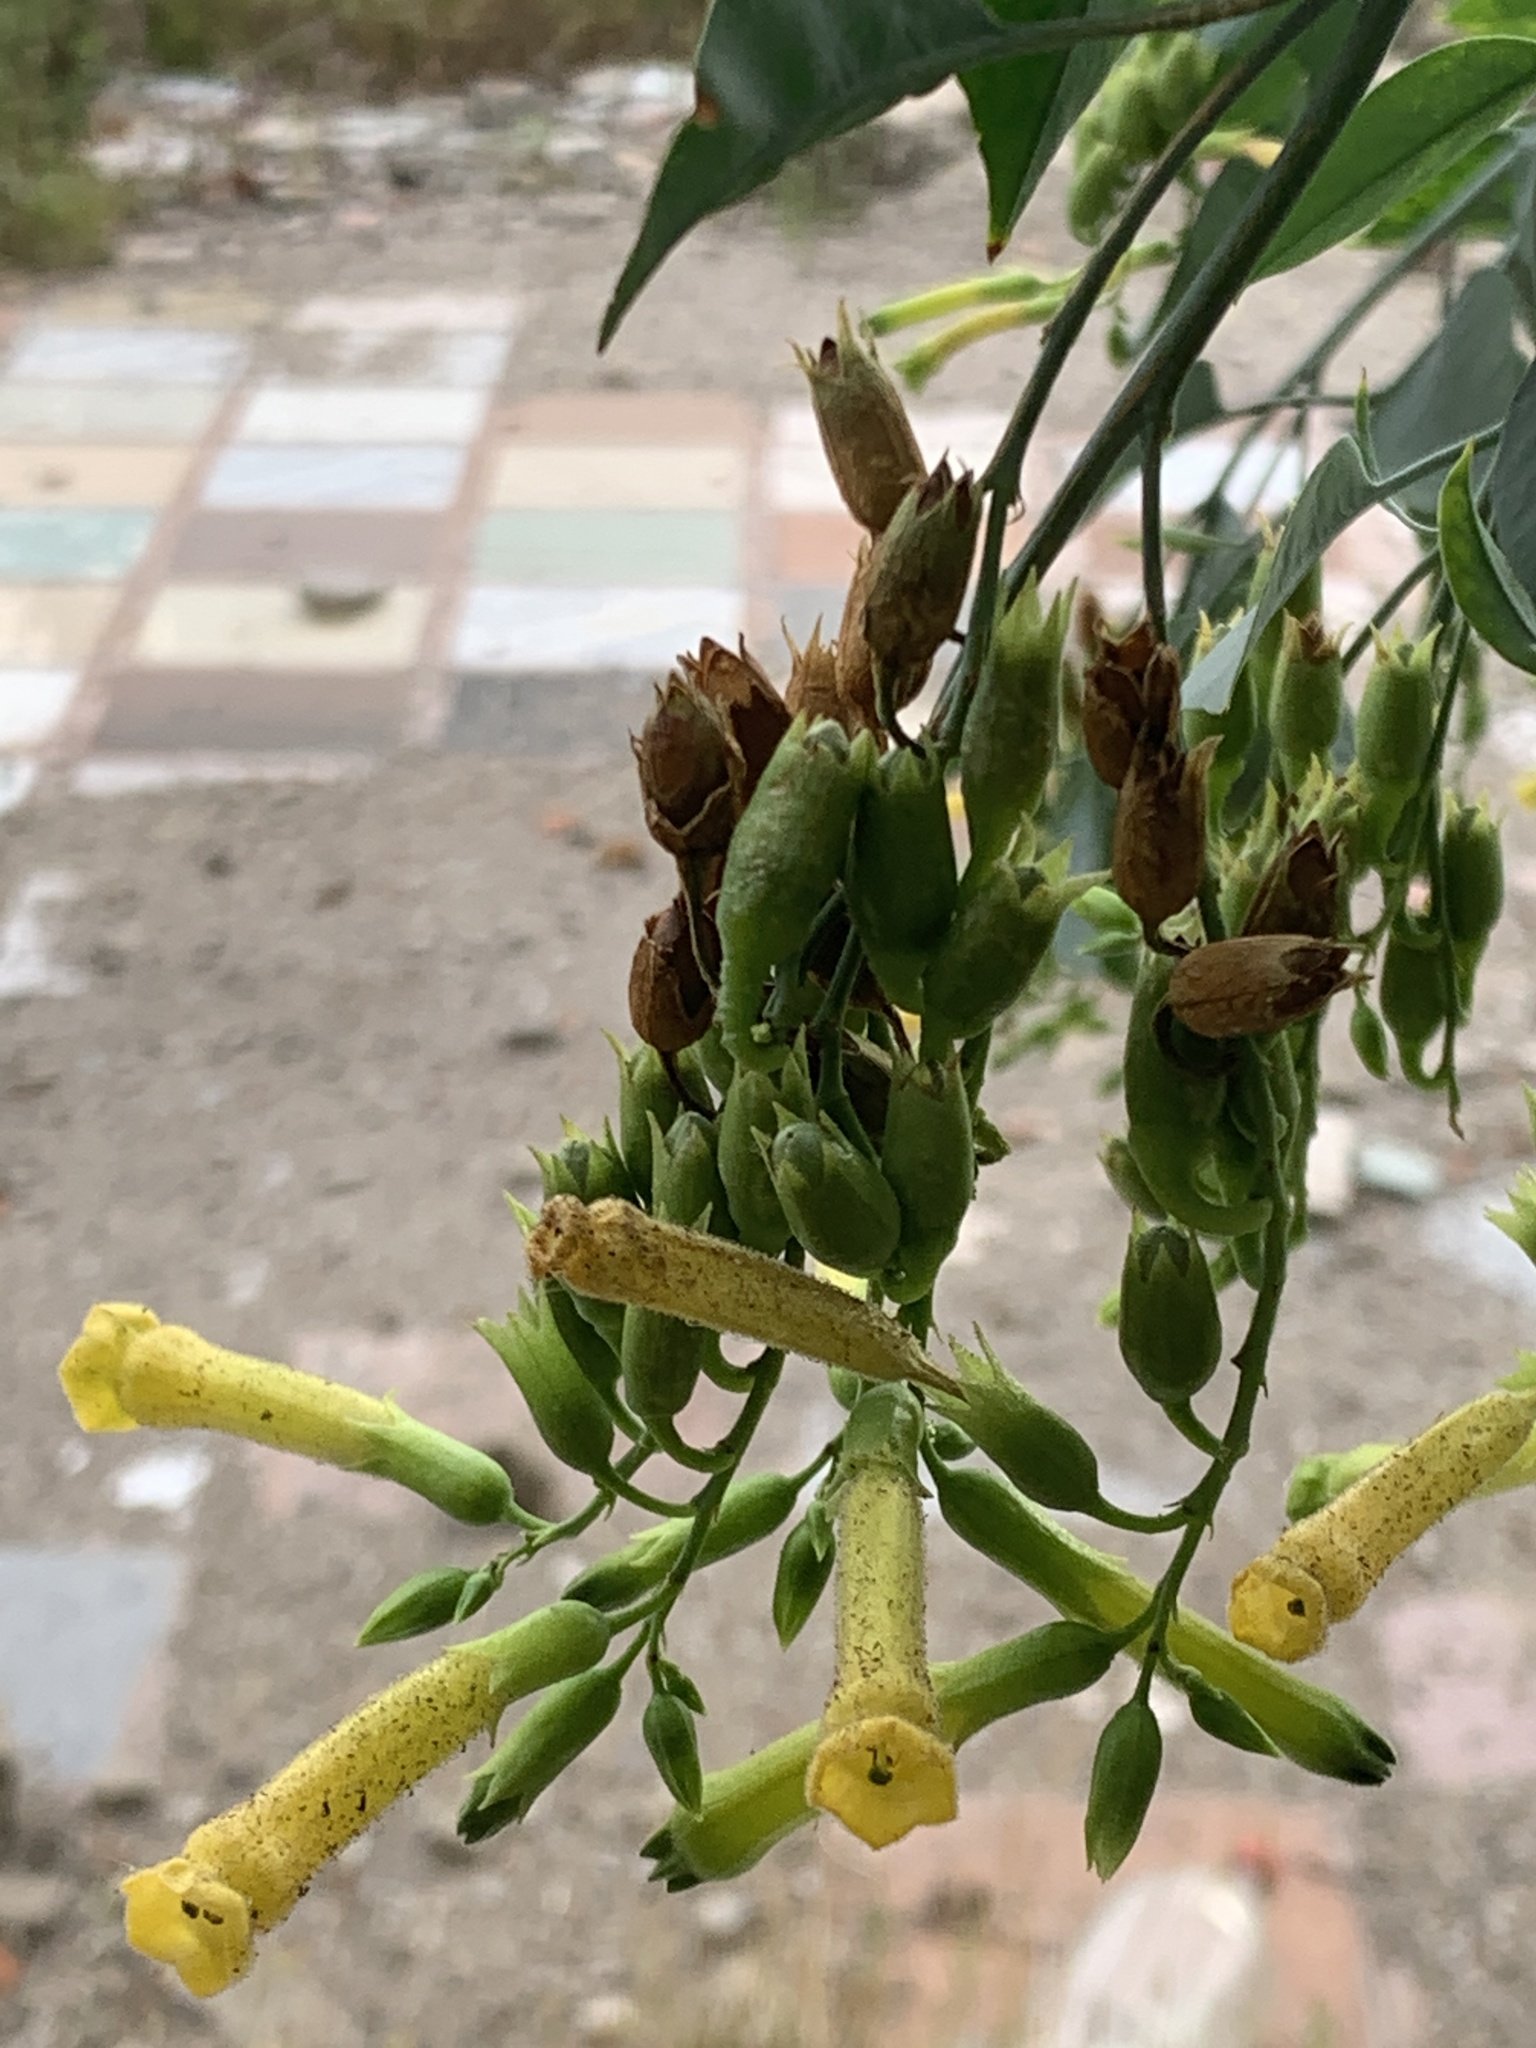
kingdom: Plantae
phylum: Tracheophyta
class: Magnoliopsida
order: Solanales
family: Solanaceae
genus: Nicotiana
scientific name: Nicotiana glauca
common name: Tree tobacco
